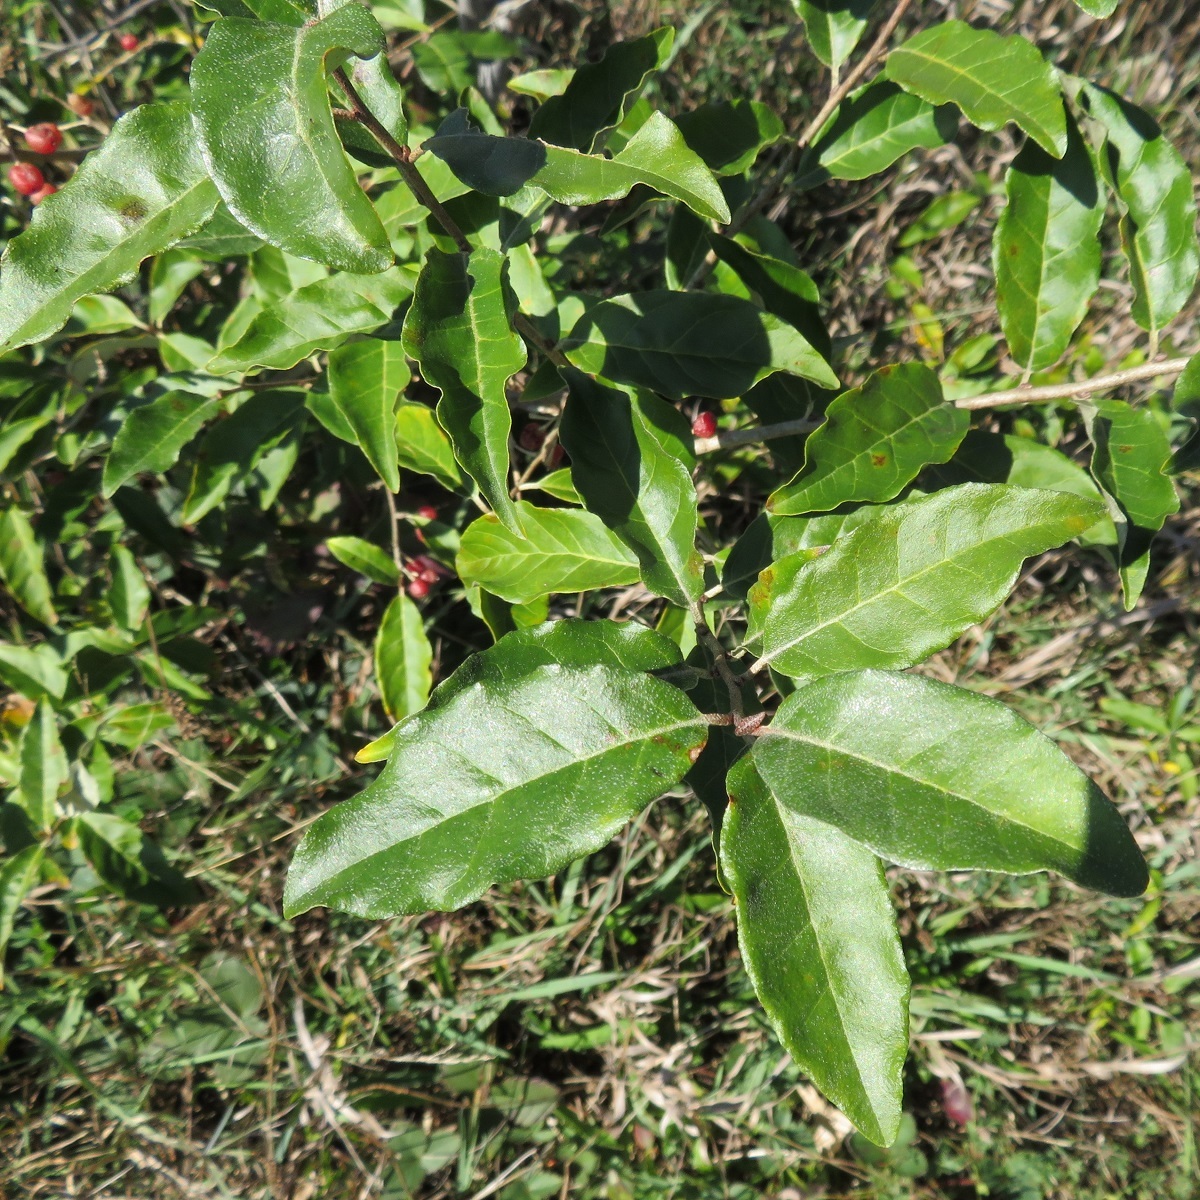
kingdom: Plantae
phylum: Tracheophyta
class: Magnoliopsida
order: Rosales
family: Elaeagnaceae
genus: Elaeagnus
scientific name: Elaeagnus umbellata
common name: Autumn olive
